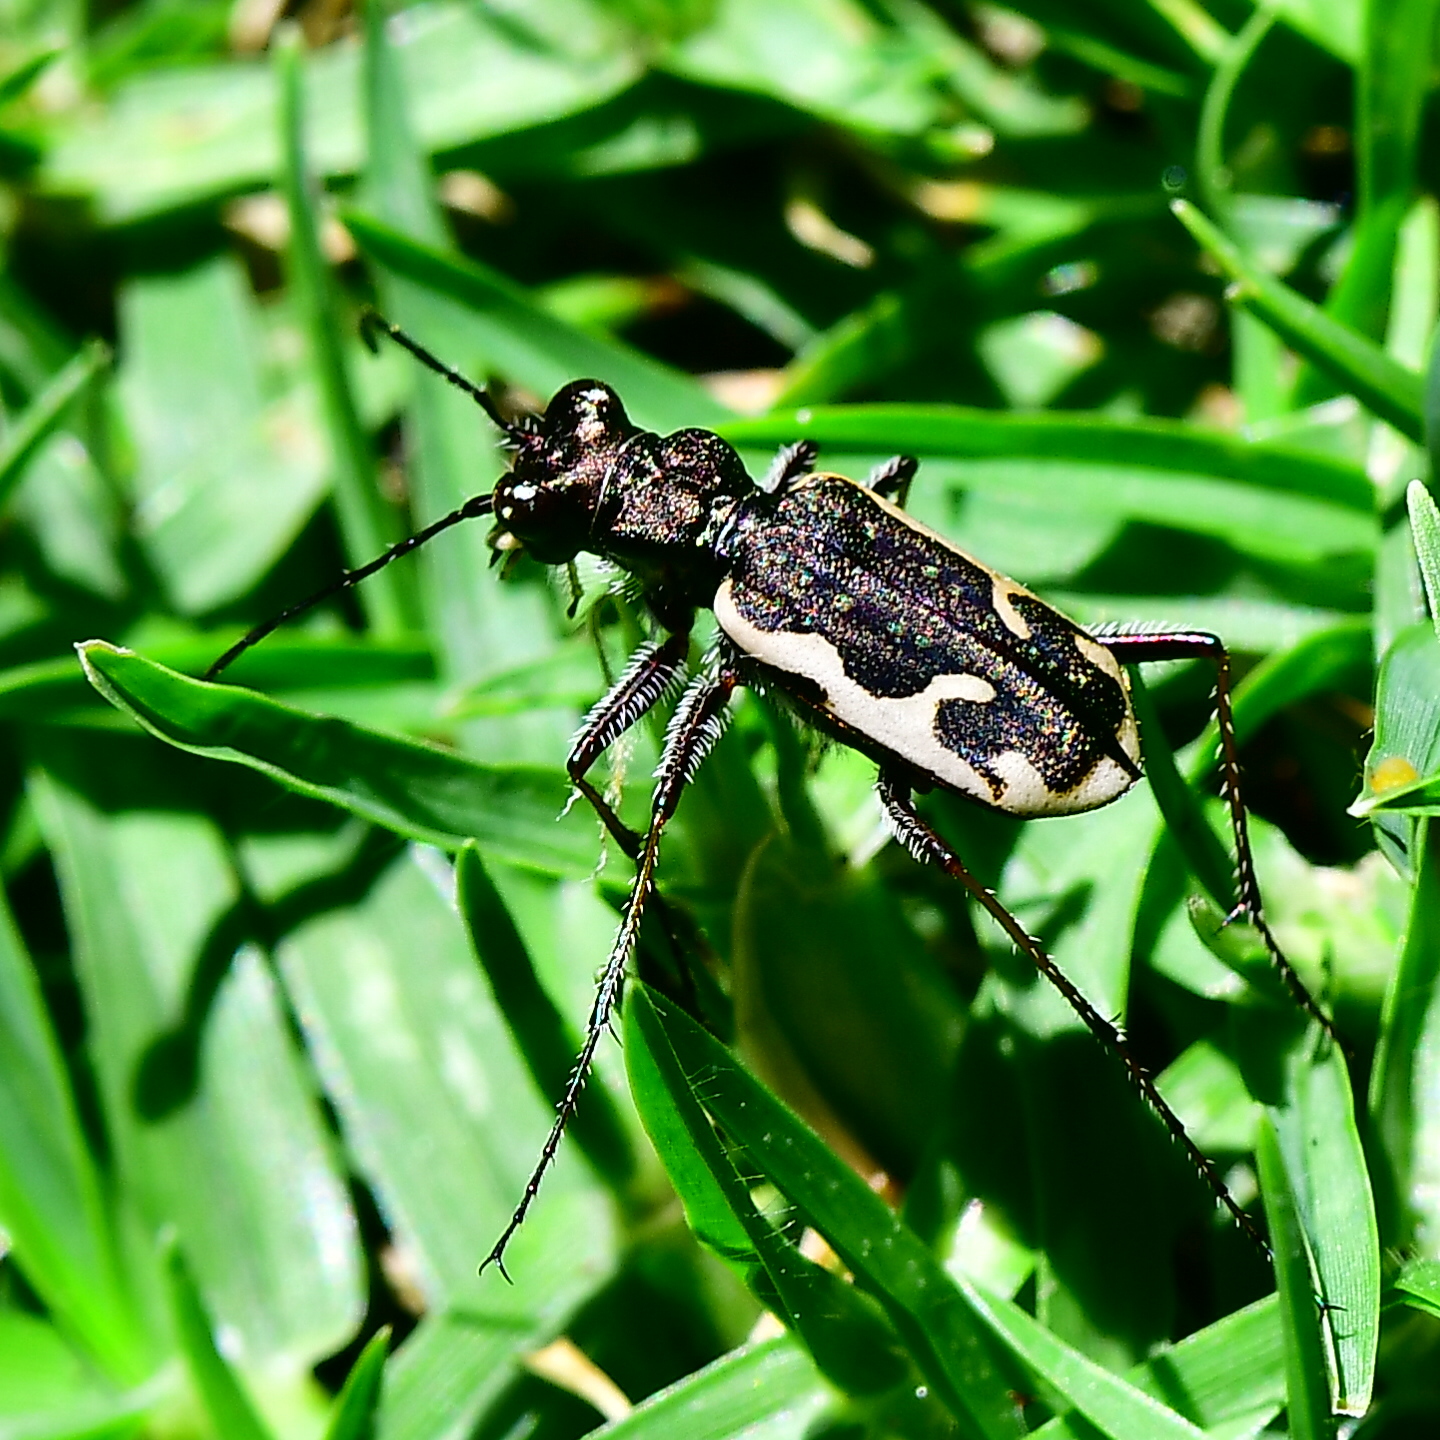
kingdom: Animalia
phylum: Arthropoda
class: Insecta
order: Coleoptera
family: Carabidae
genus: Neocicindela
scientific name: Neocicindela tuberculata
